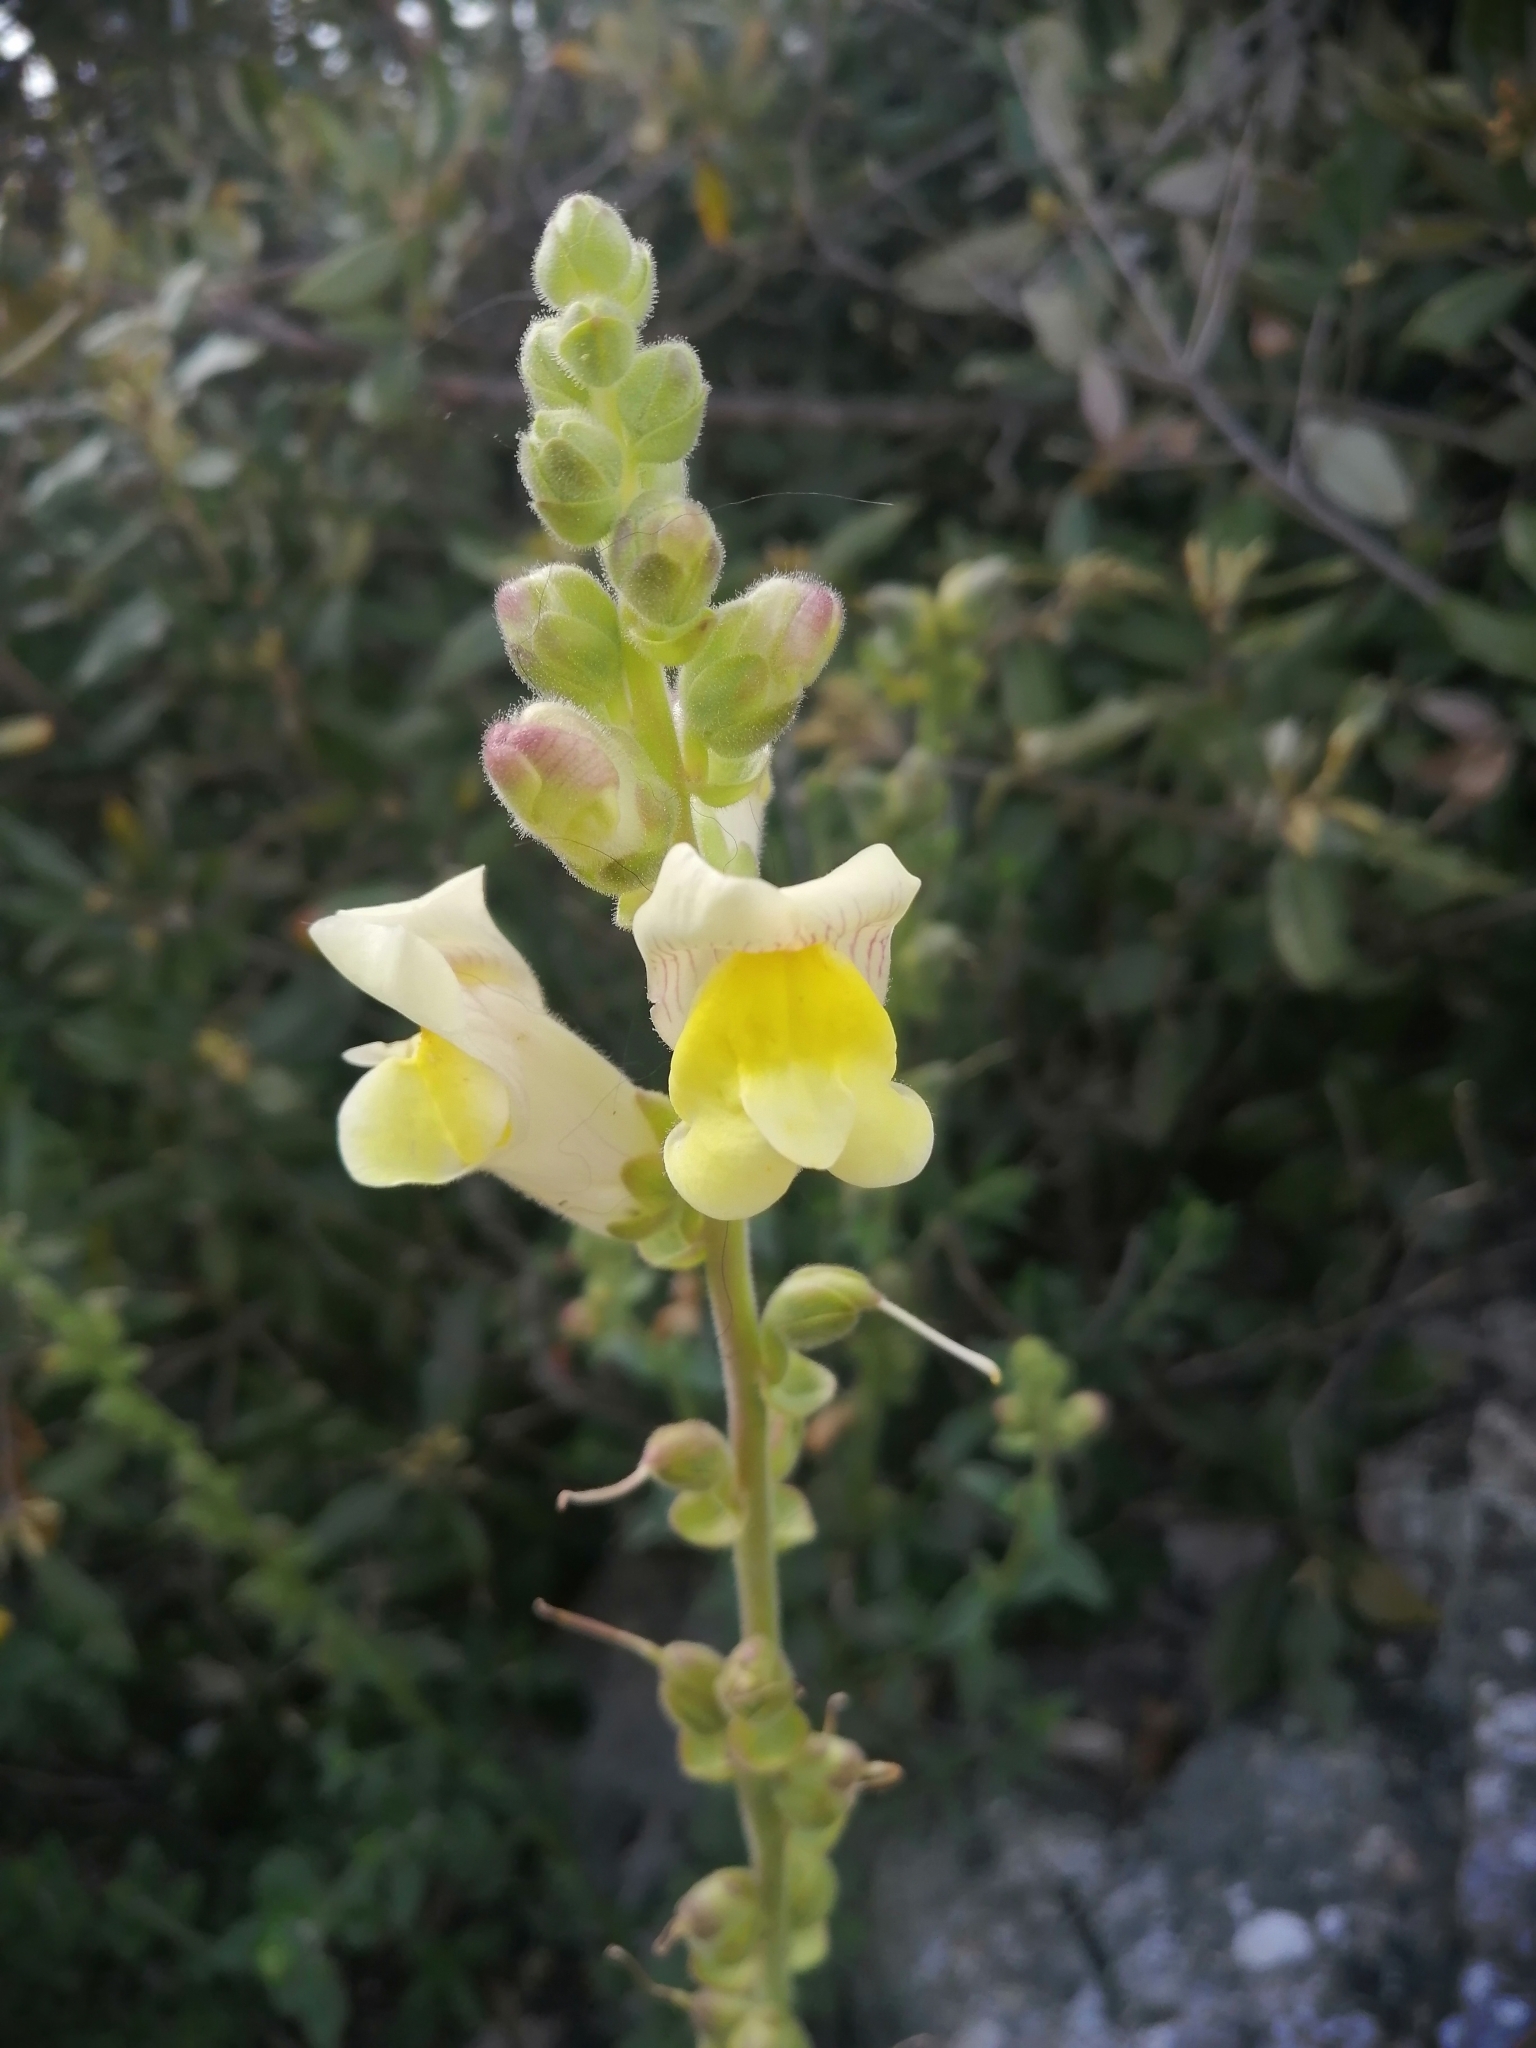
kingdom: Plantae
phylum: Tracheophyta
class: Magnoliopsida
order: Lamiales
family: Plantaginaceae
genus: Antirrhinum
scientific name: Antirrhinum latifolium
